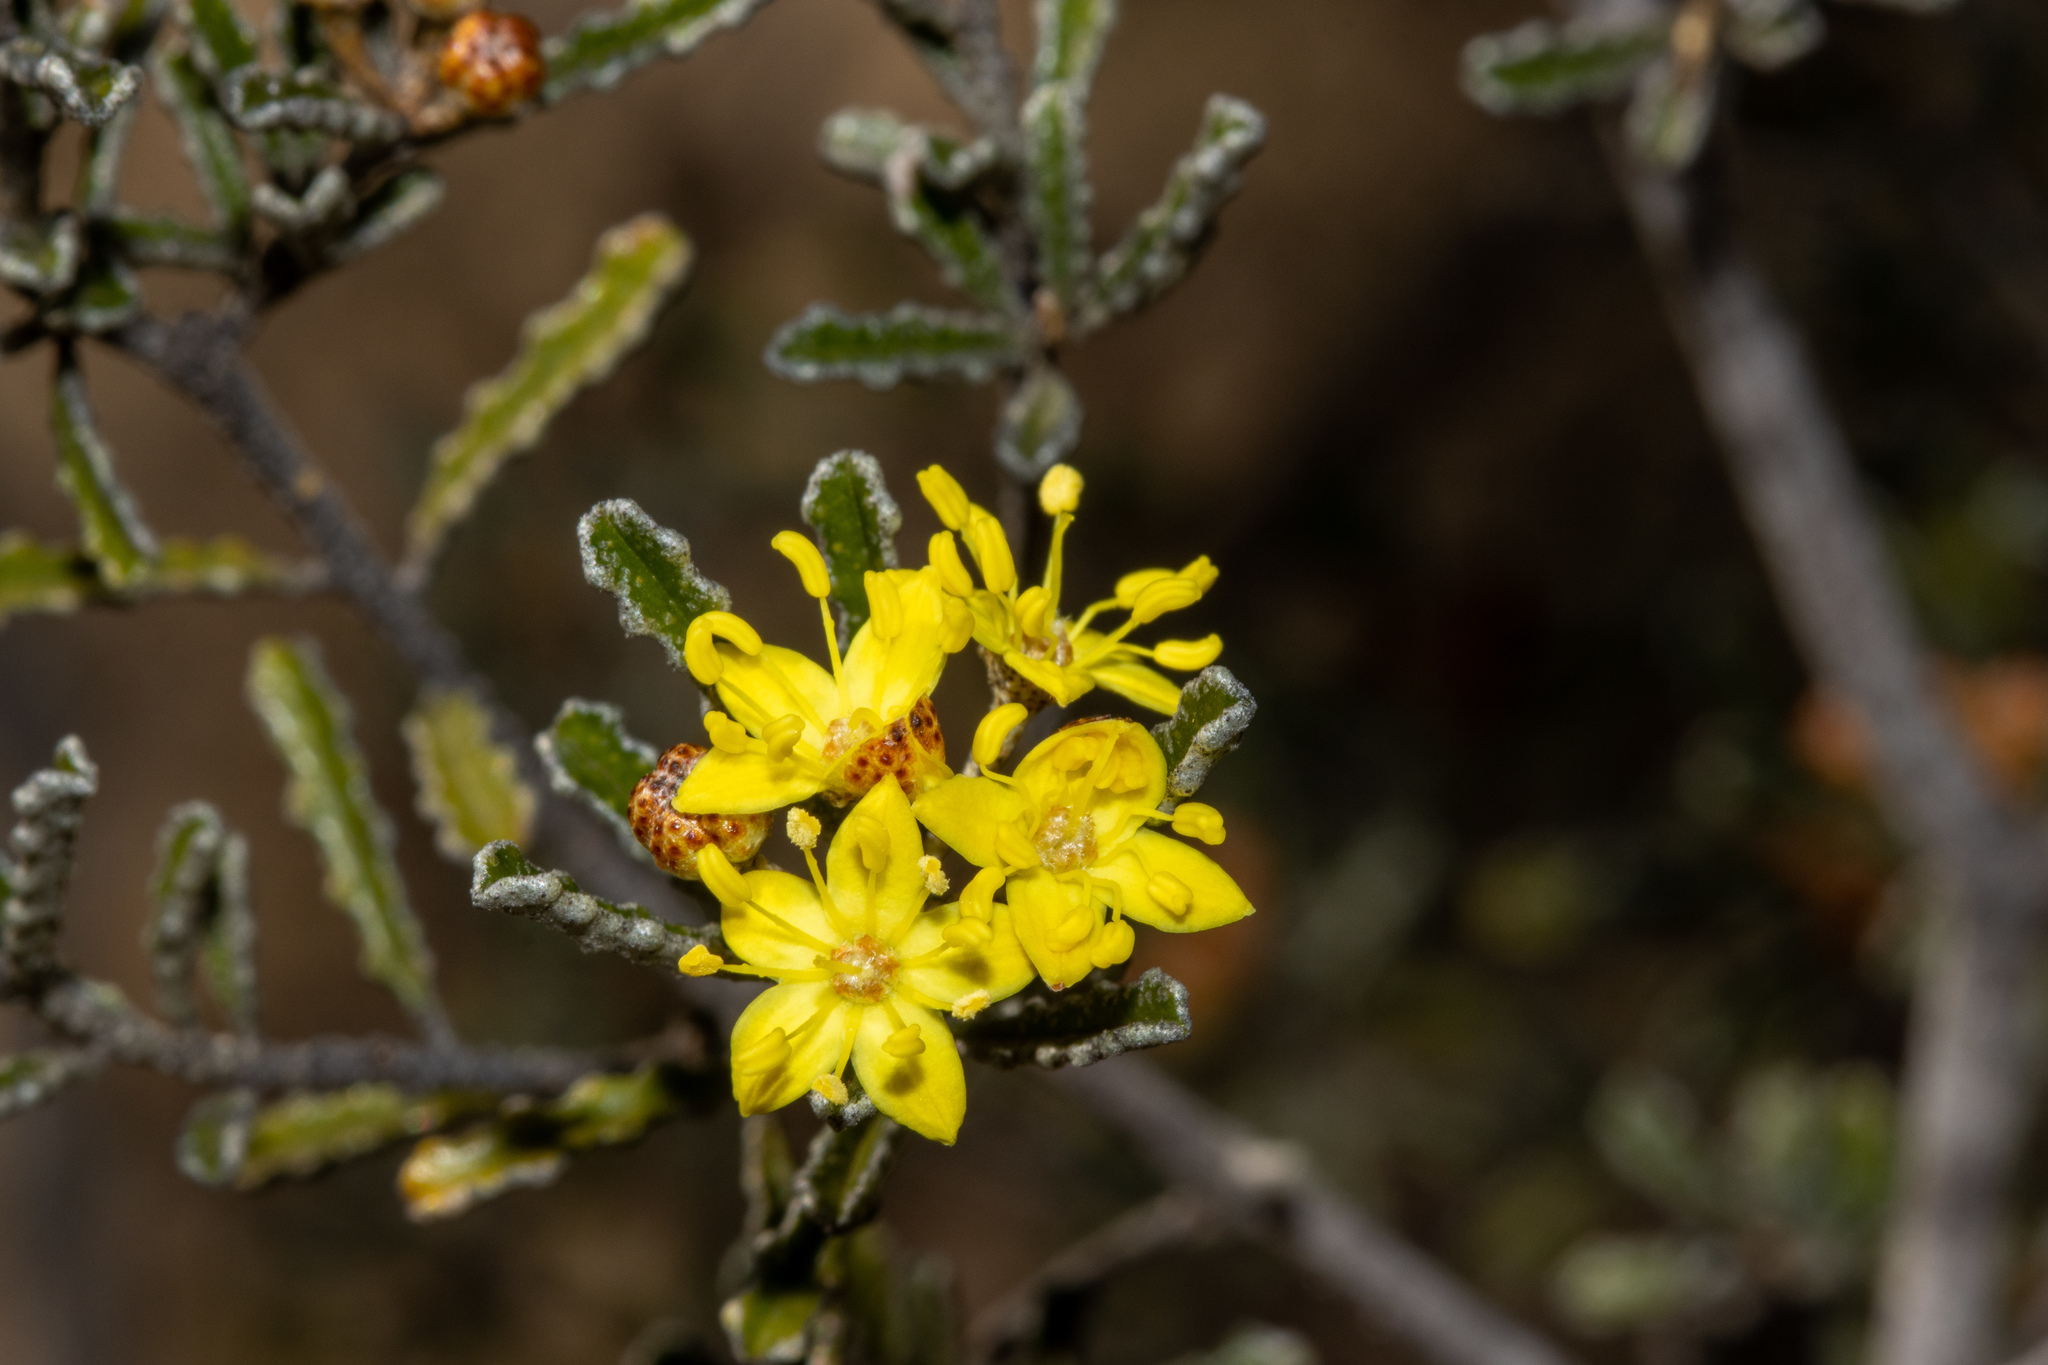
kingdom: Plantae
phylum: Tracheophyta
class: Magnoliopsida
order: Sapindales
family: Rutaceae
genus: Phebalium
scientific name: Phebalium bullatum
